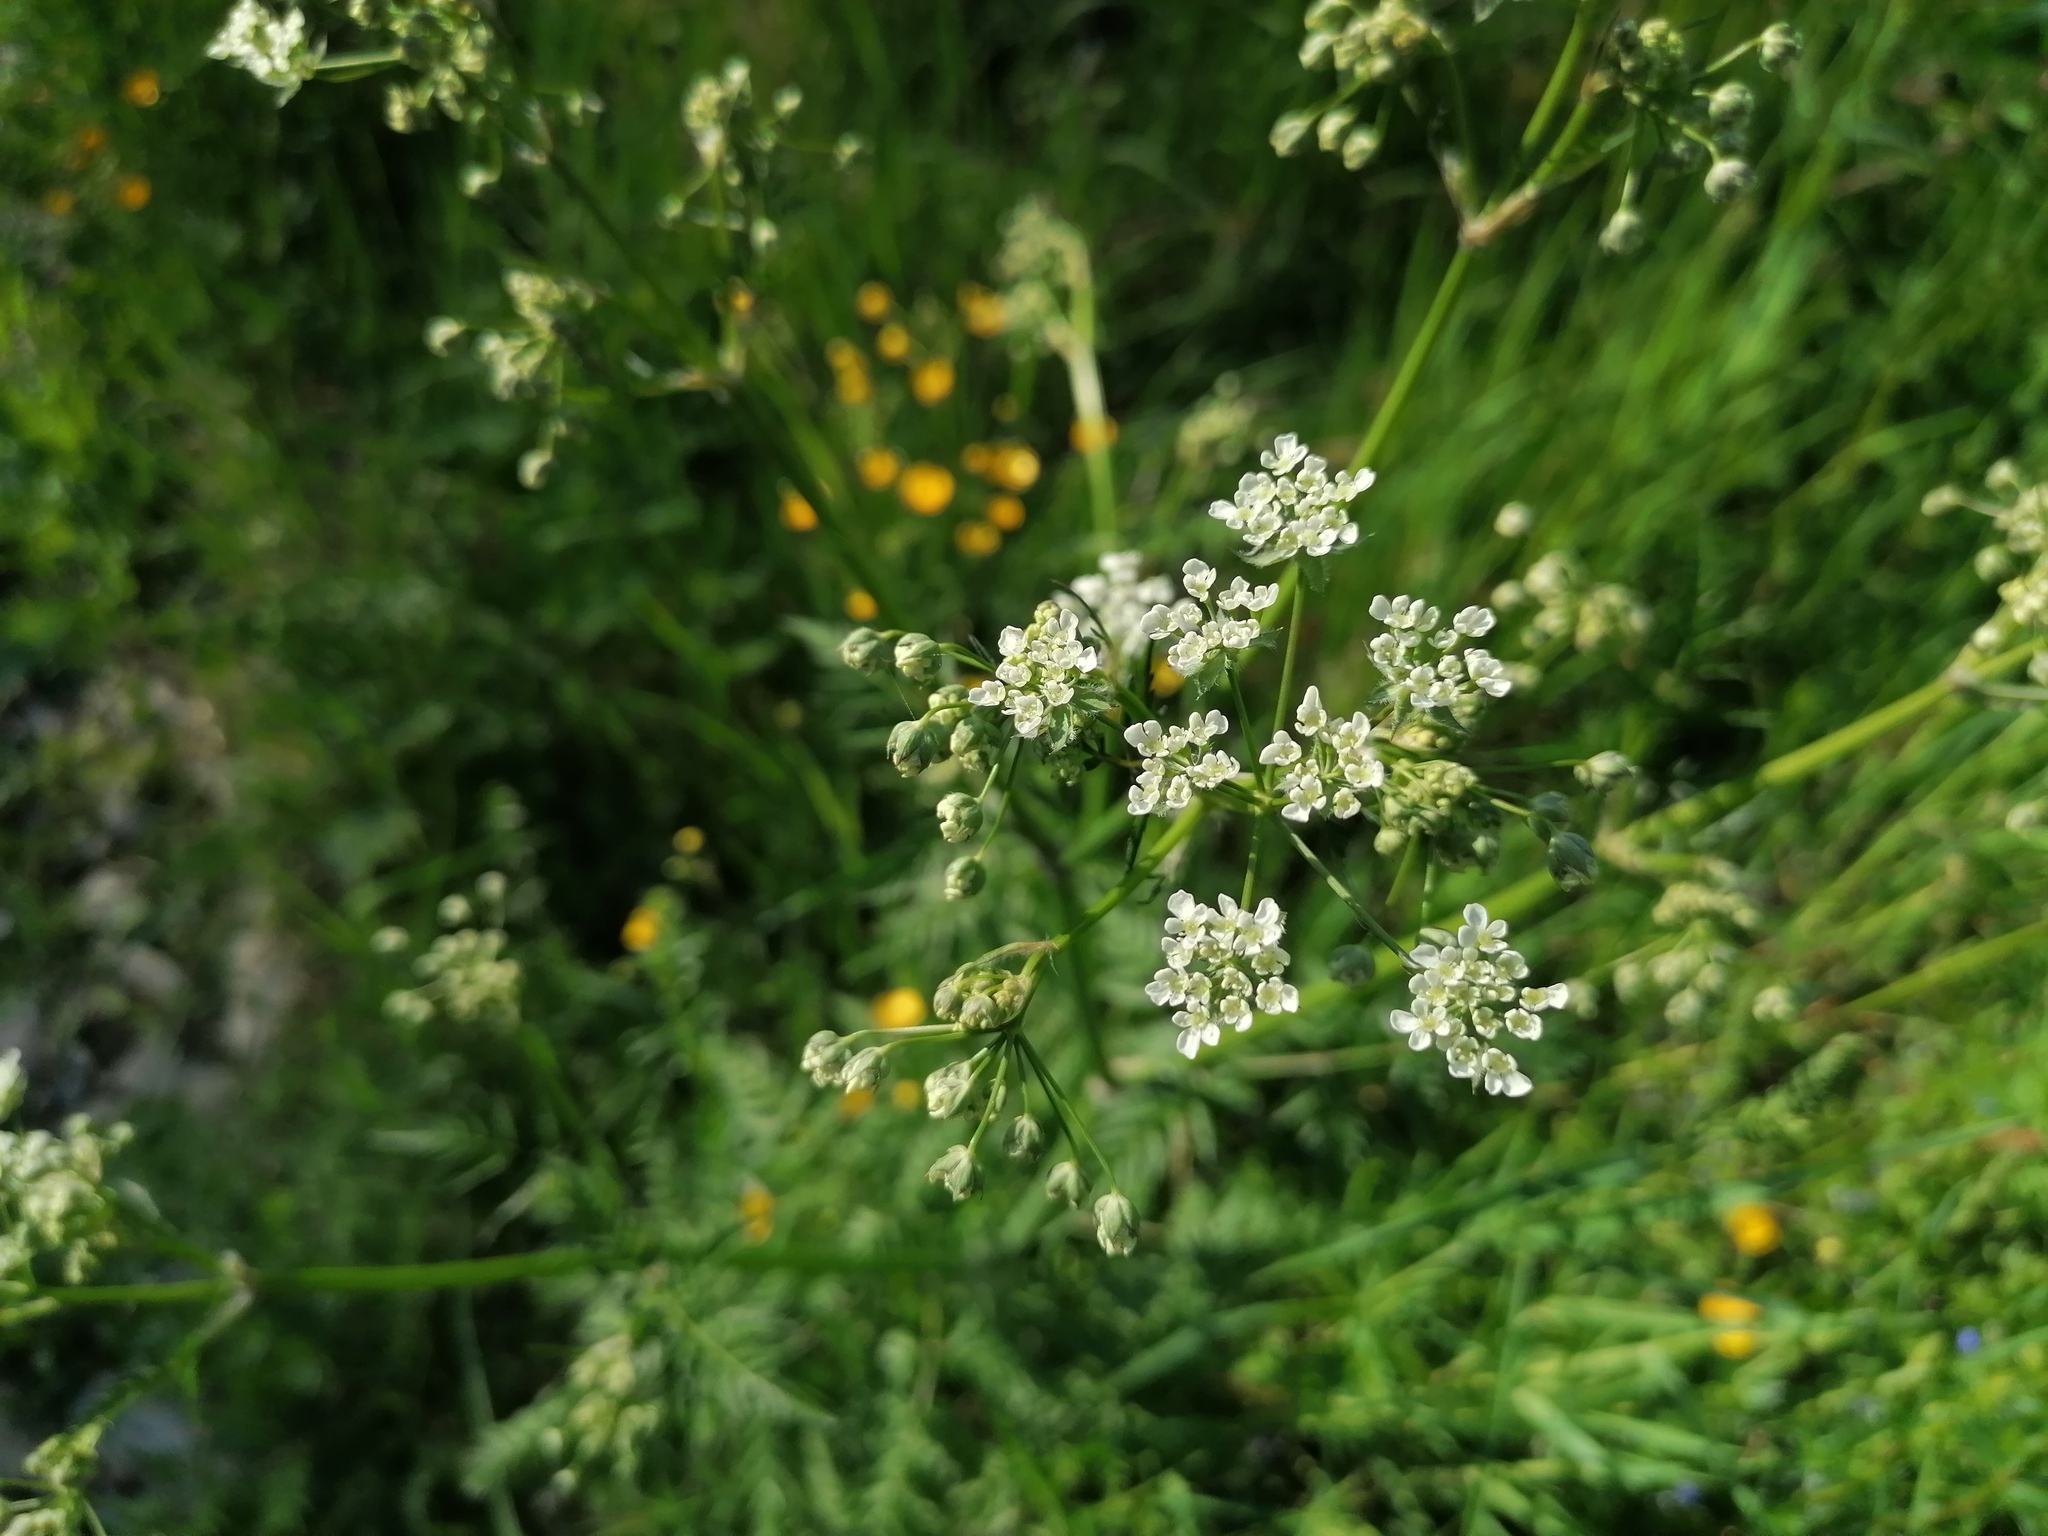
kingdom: Plantae
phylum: Tracheophyta
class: Magnoliopsida
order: Apiales
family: Apiaceae
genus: Anthriscus
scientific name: Anthriscus sylvestris
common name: Cow parsley
